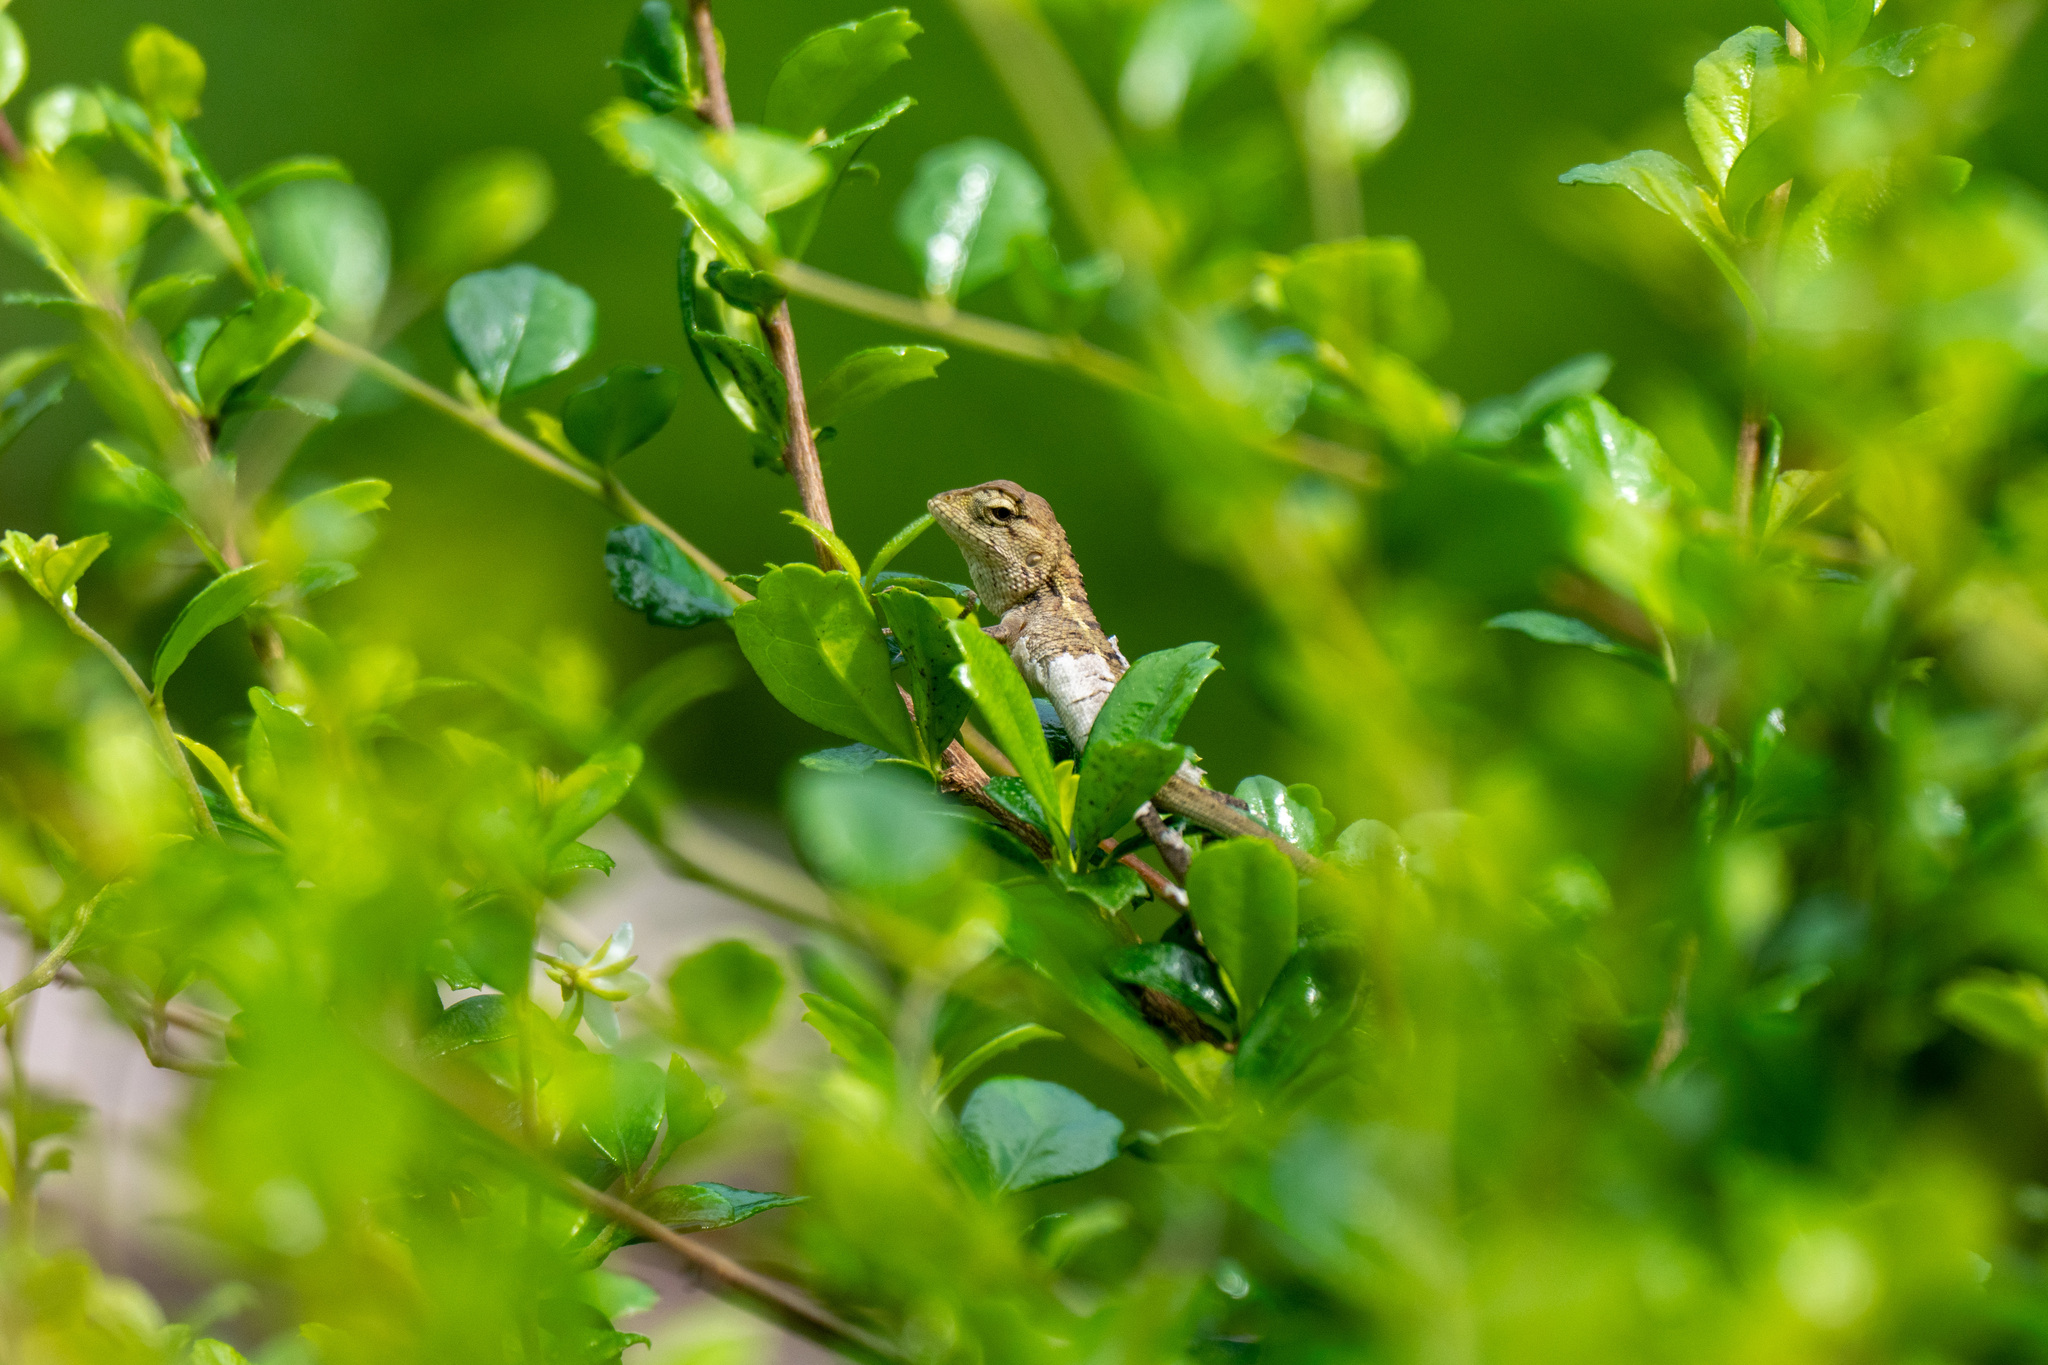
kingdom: Animalia
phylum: Chordata
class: Squamata
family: Agamidae
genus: Calotes
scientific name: Calotes versicolor
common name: Oriental garden lizard
